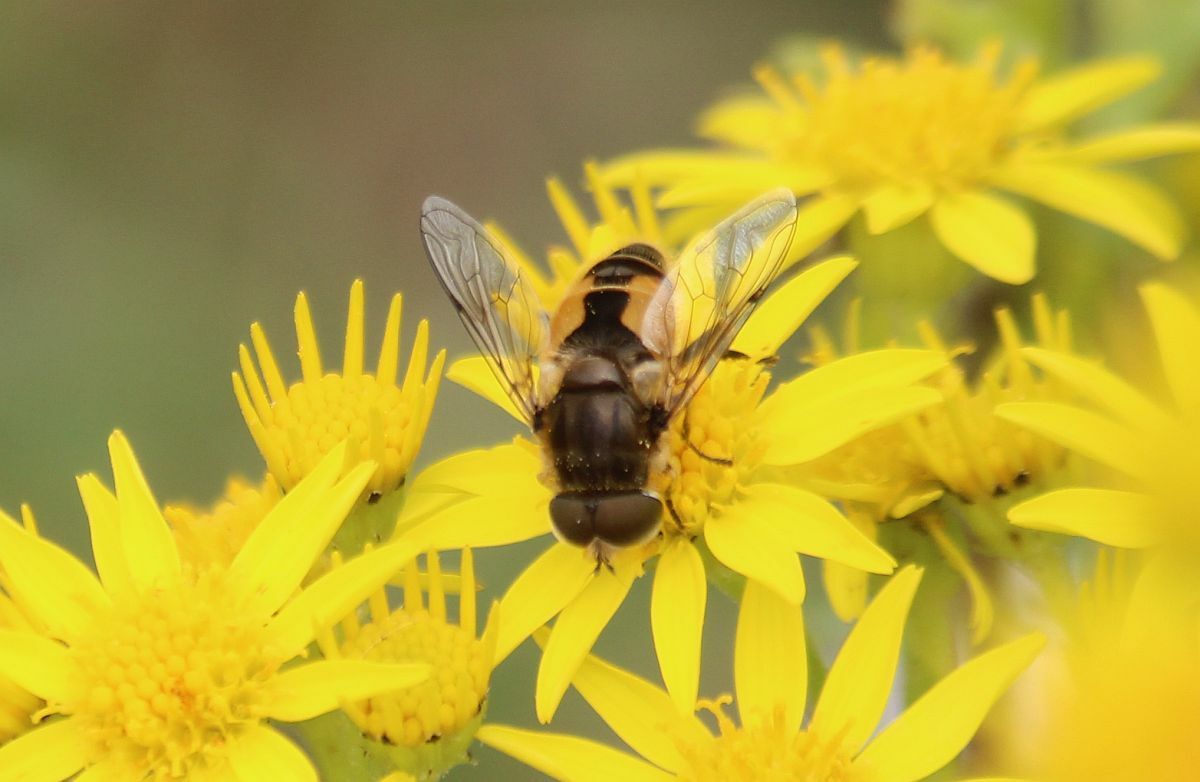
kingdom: Animalia
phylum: Arthropoda
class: Insecta
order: Diptera
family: Syrphidae
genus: Eristalis
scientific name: Eristalis arbustorum
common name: Hover fly
